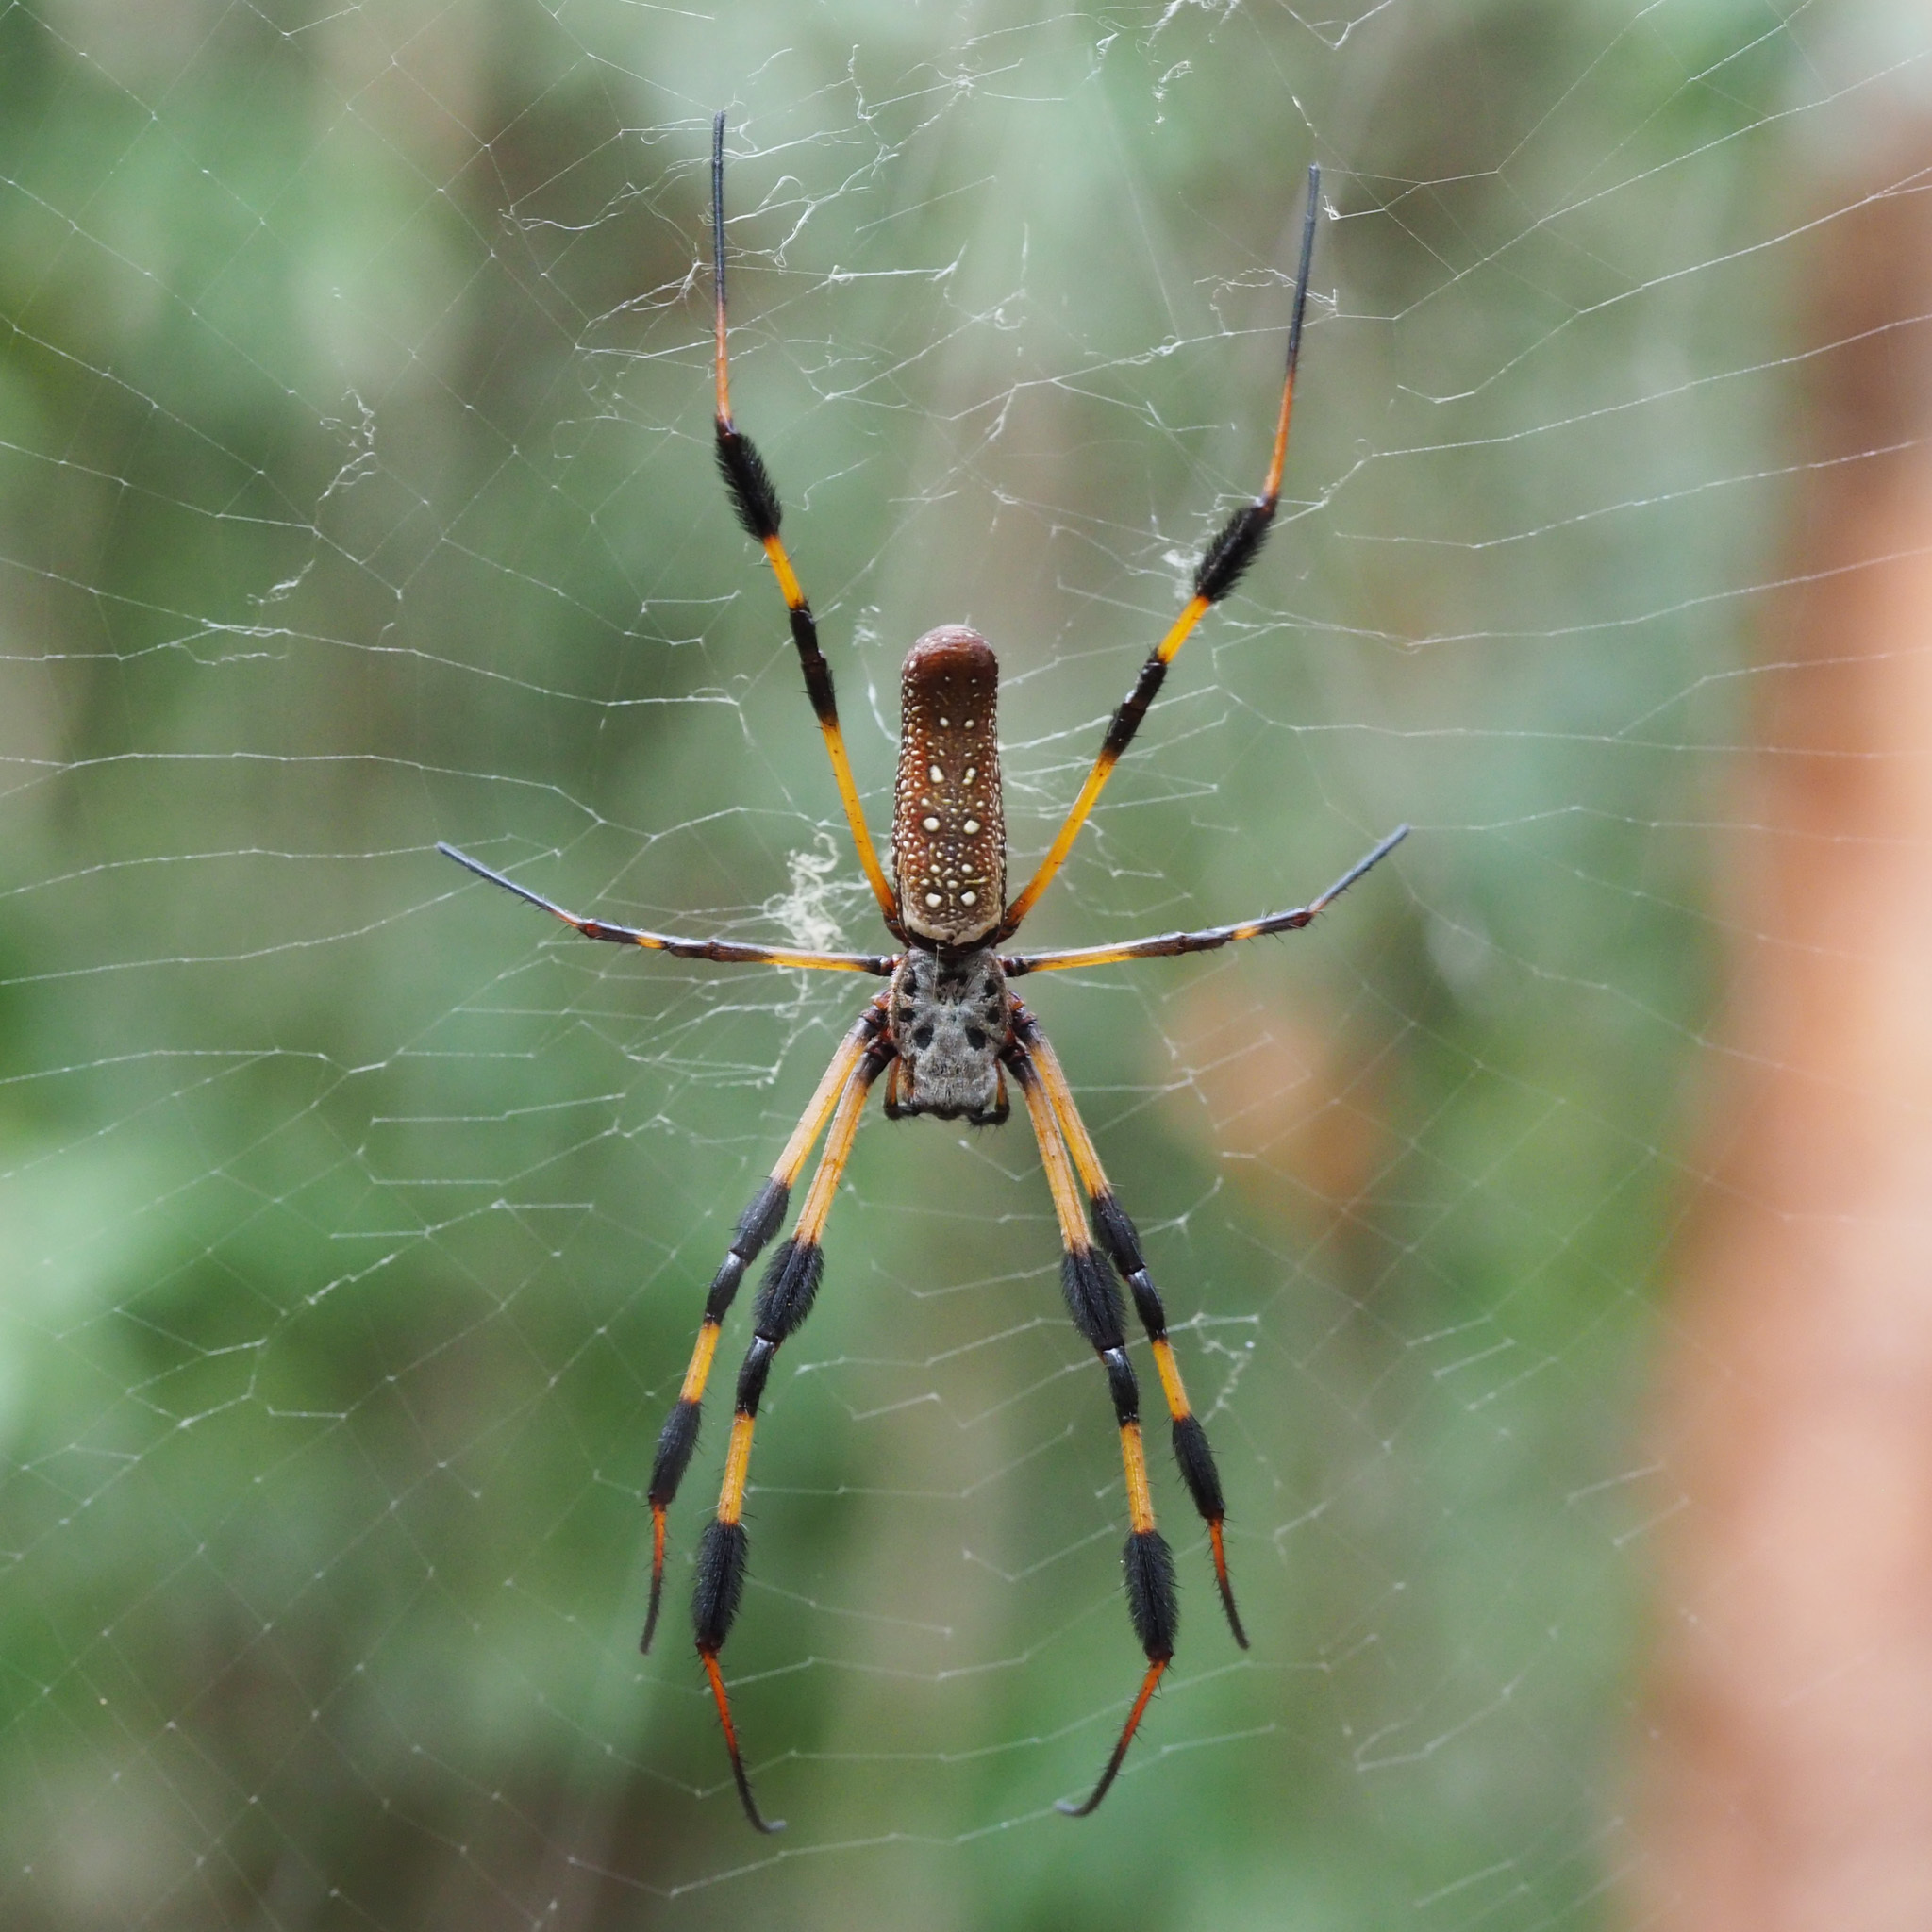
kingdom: Animalia
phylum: Arthropoda
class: Arachnida
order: Araneae
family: Araneidae
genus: Trichonephila
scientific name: Trichonephila clavipes
